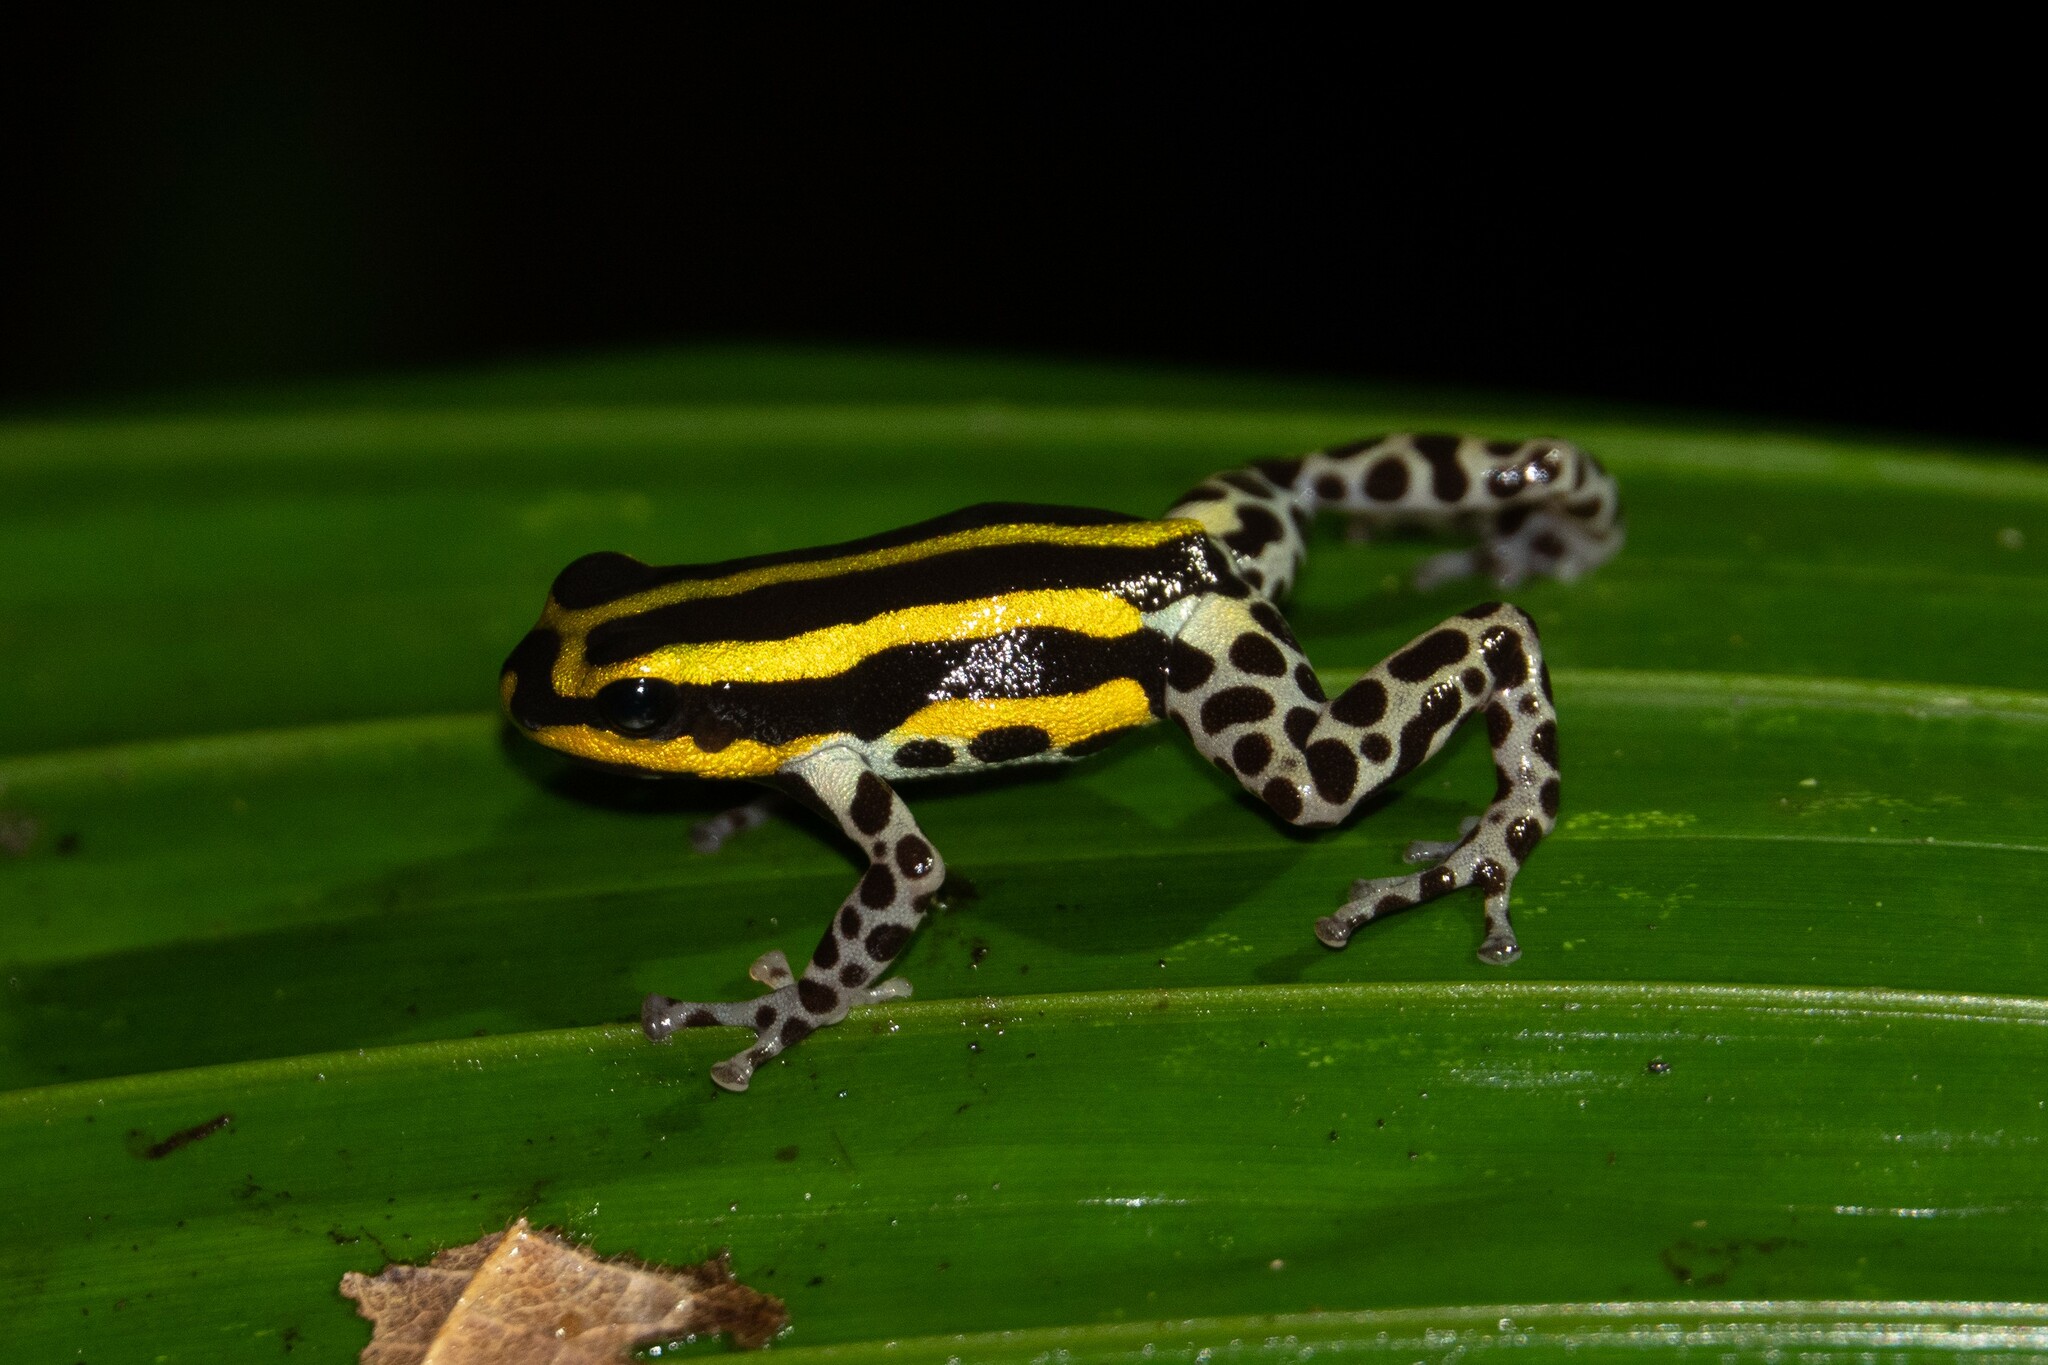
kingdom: Animalia
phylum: Chordata
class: Amphibia
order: Anura
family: Dendrobatidae
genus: Ranitomeya
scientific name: Ranitomeya sirensis
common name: Sira poison frog
